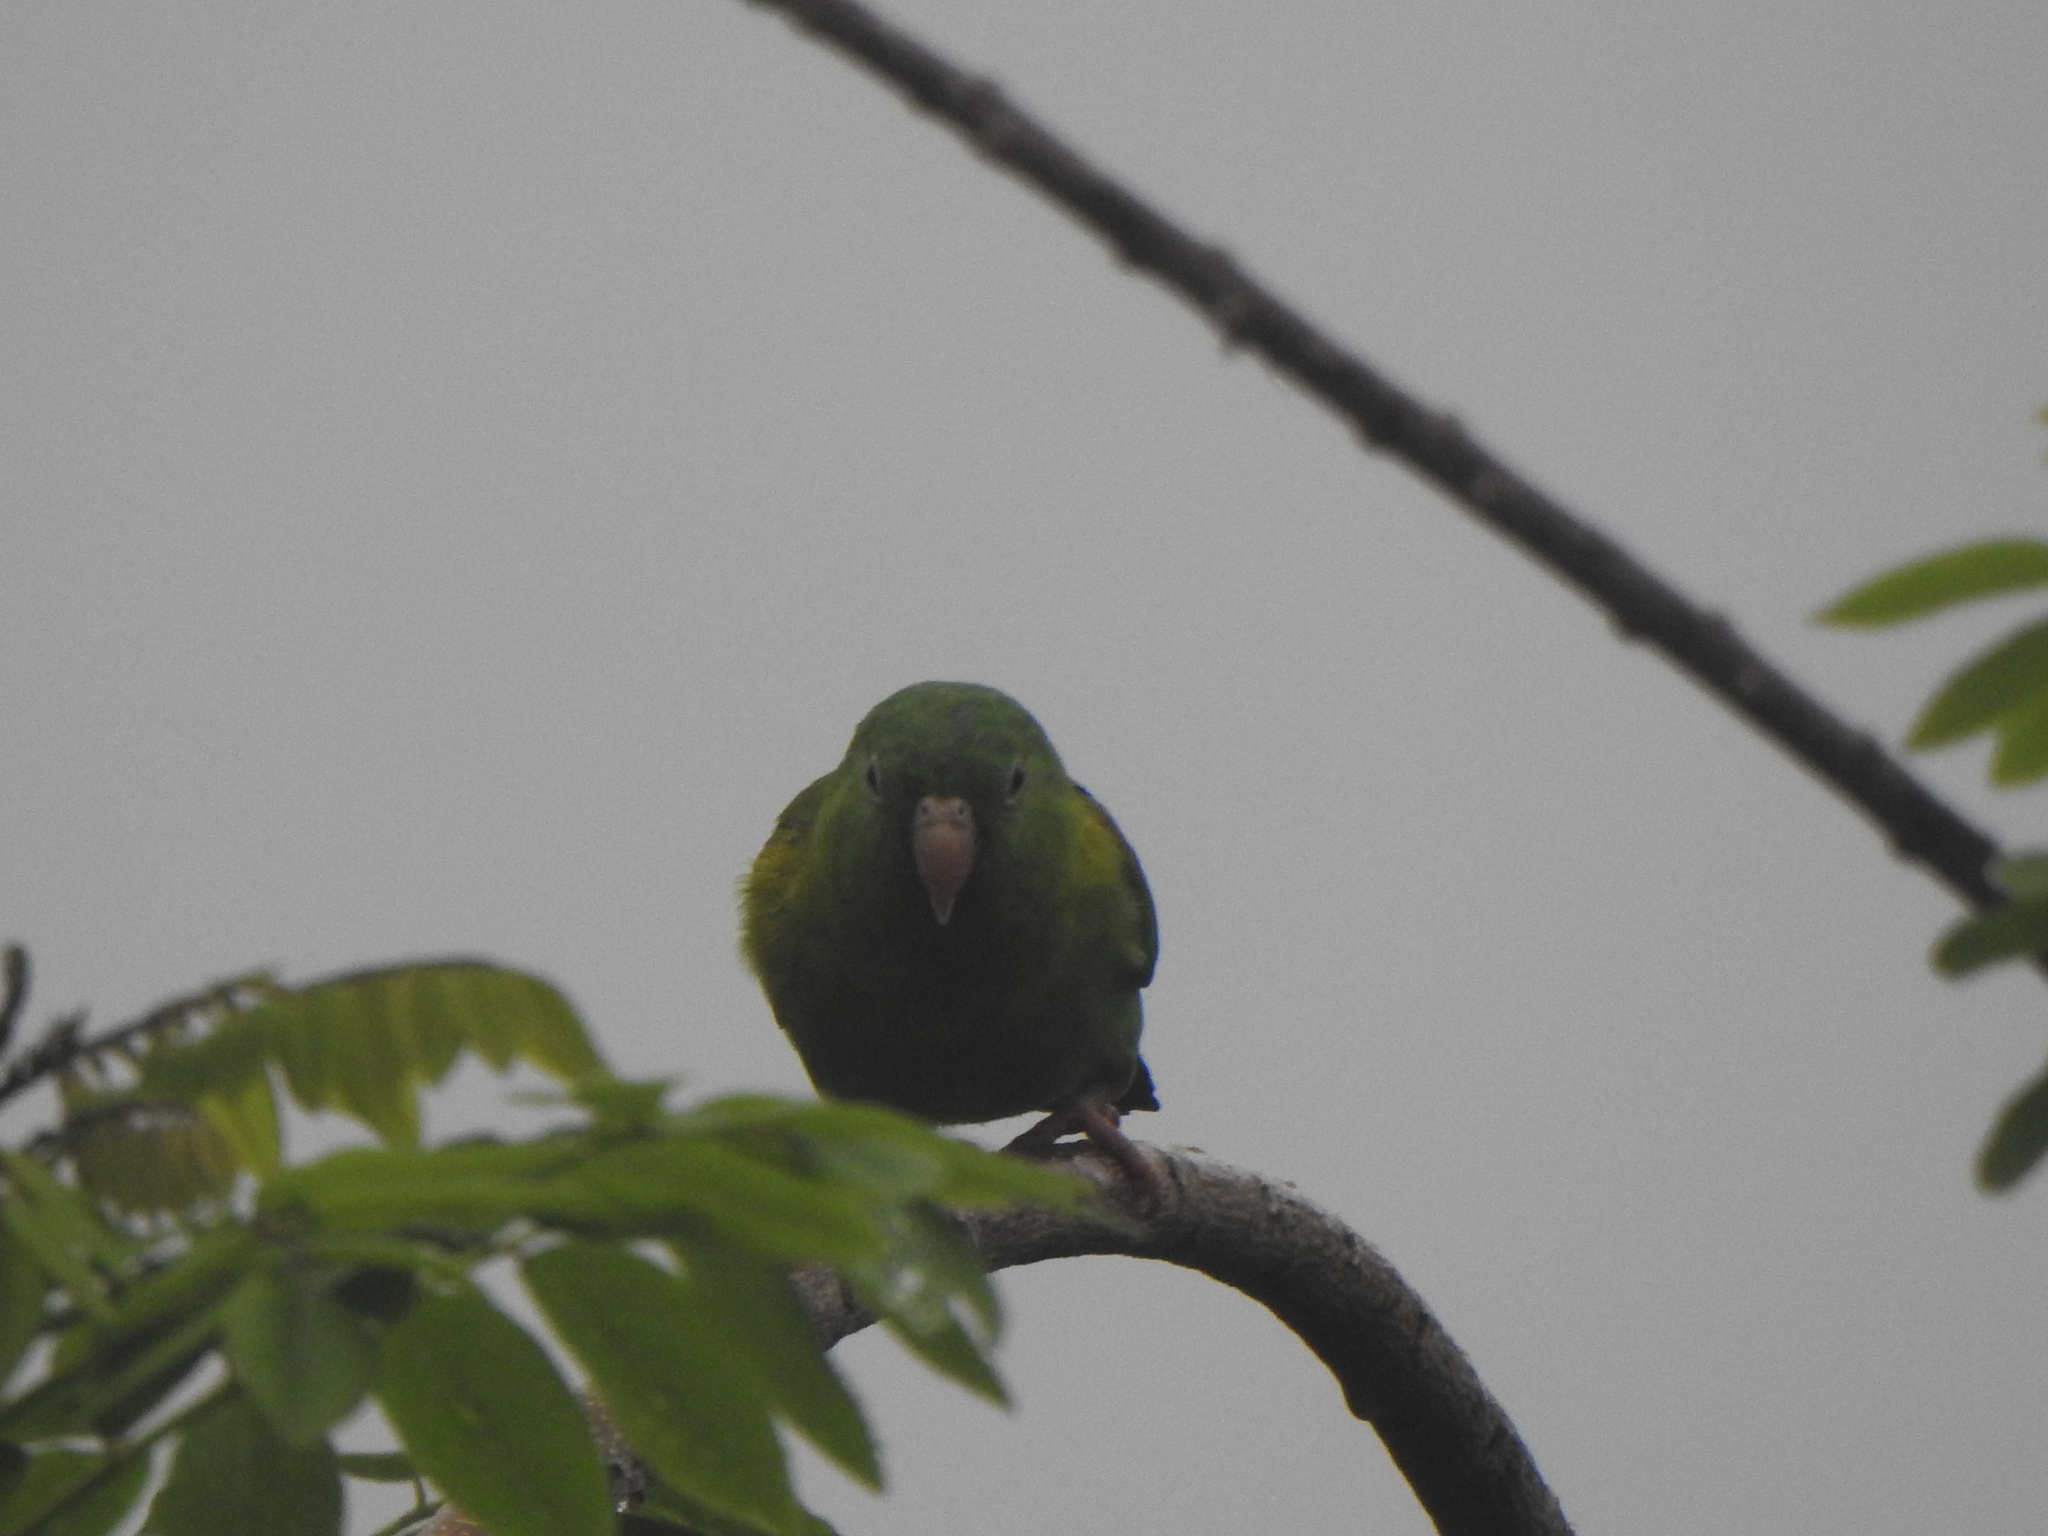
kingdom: Animalia
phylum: Chordata
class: Aves
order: Psittaciformes
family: Psittacidae
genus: Brotogeris
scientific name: Brotogeris jugularis
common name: Orange-chinned parakeet
